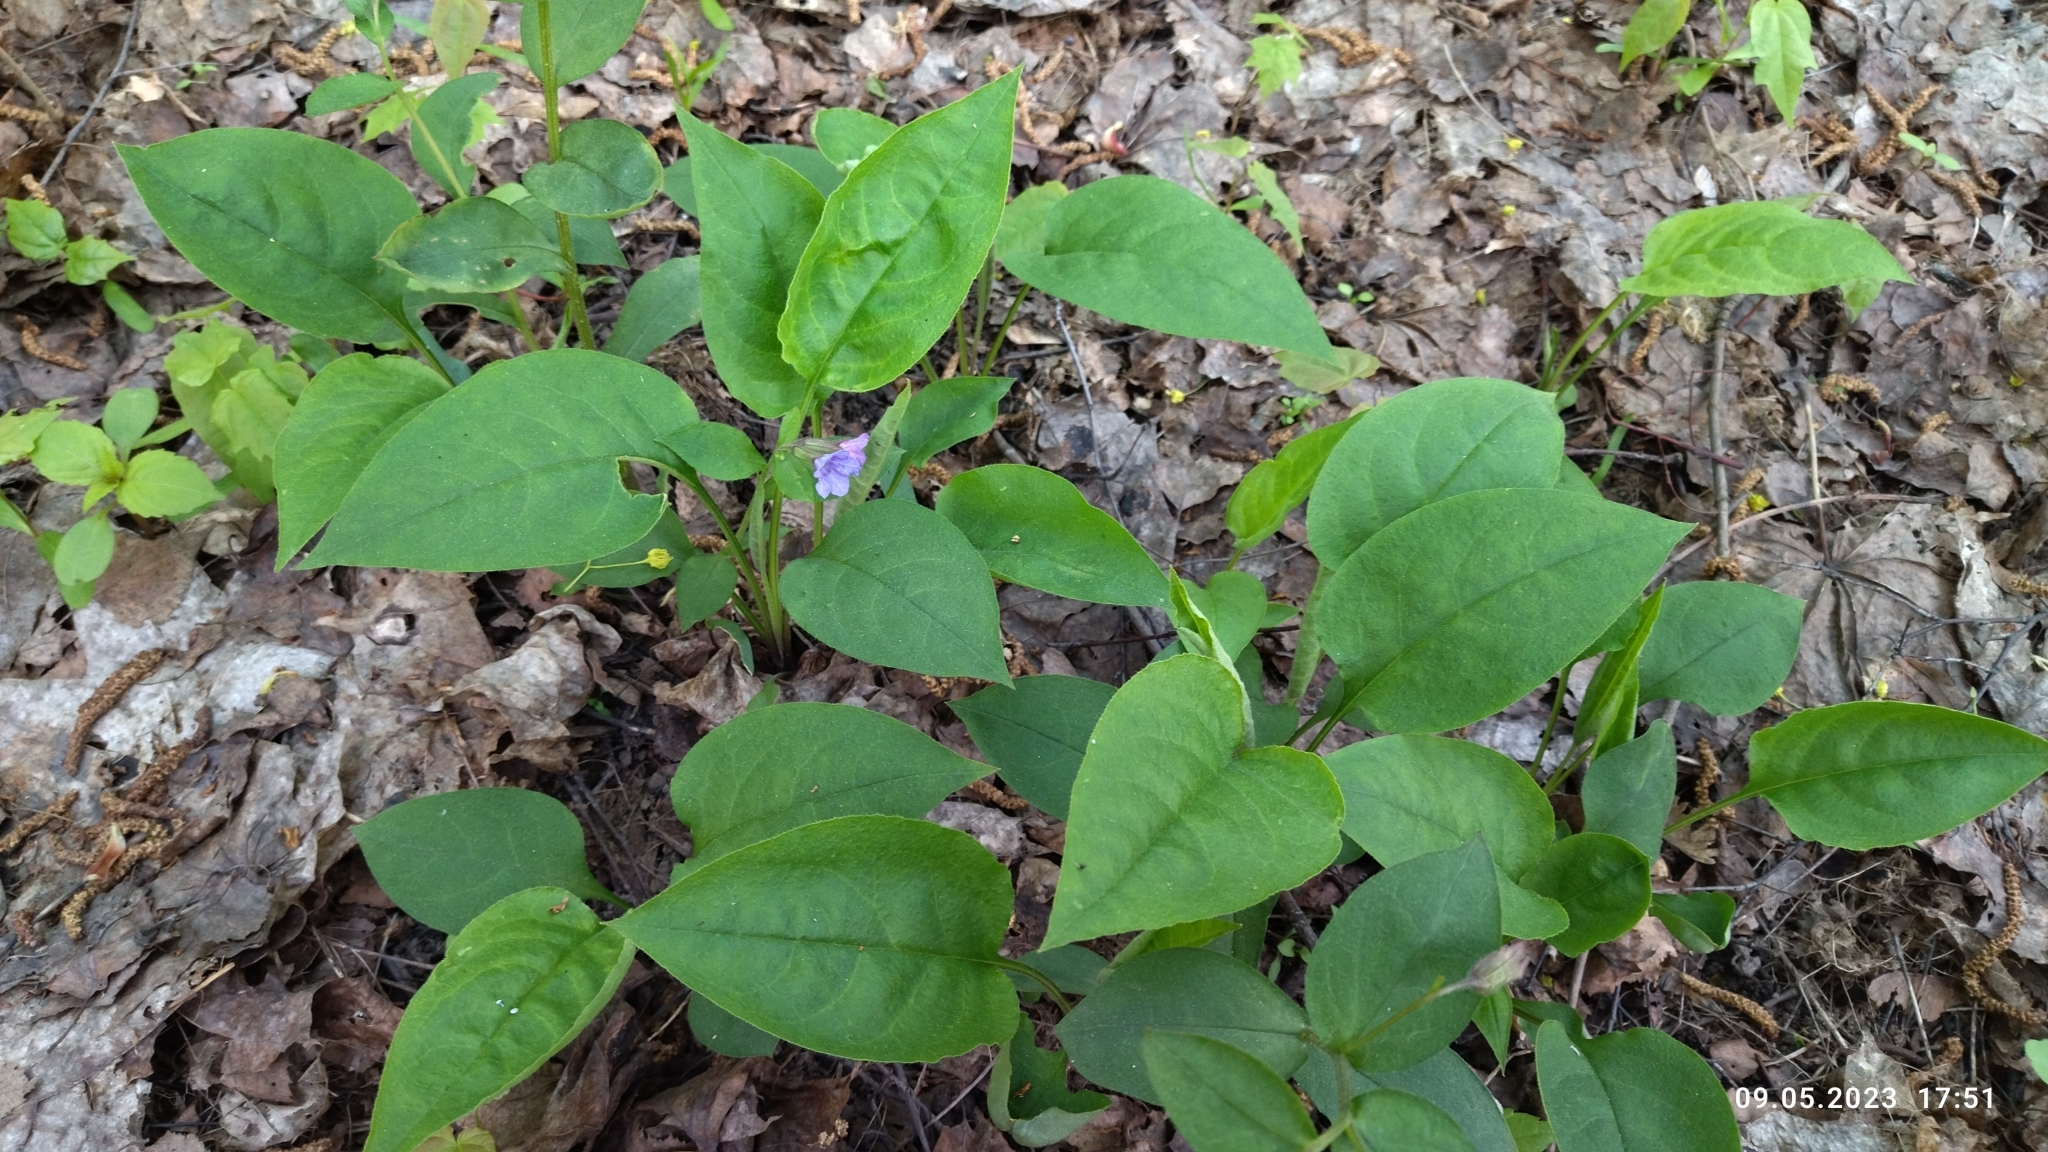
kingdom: Plantae
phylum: Tracheophyta
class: Magnoliopsida
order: Boraginales
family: Boraginaceae
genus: Pulmonaria
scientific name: Pulmonaria obscura
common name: Suffolk lungwort
